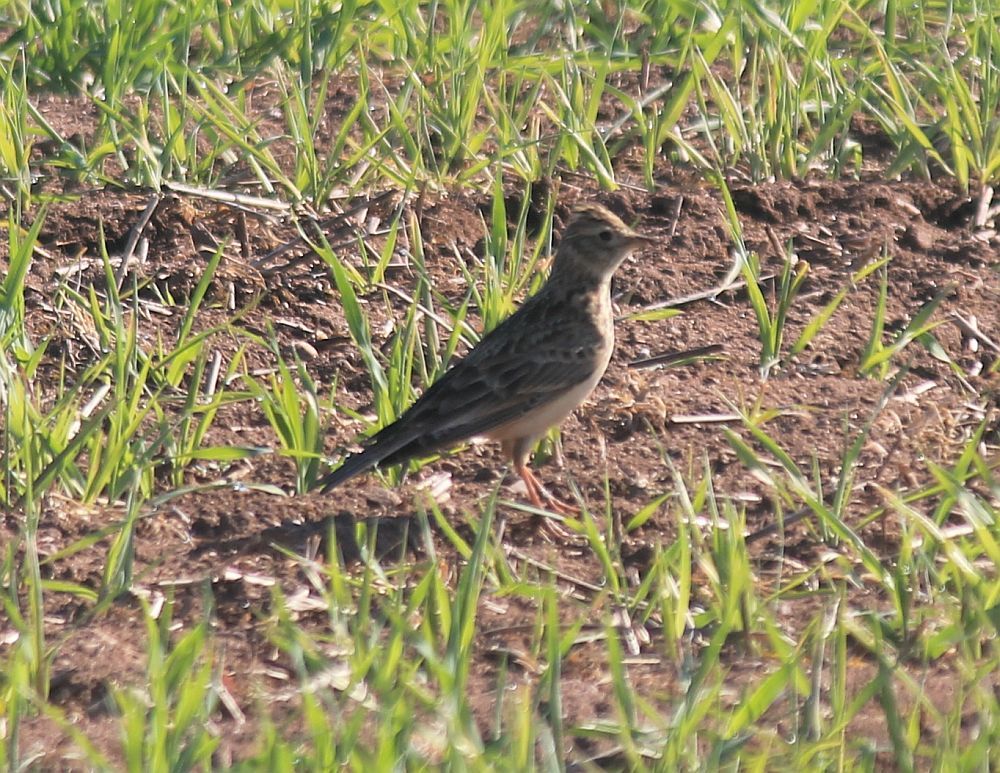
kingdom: Animalia
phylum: Chordata
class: Aves
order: Passeriformes
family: Alaudidae
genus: Alauda
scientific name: Alauda arvensis
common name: Eurasian skylark
